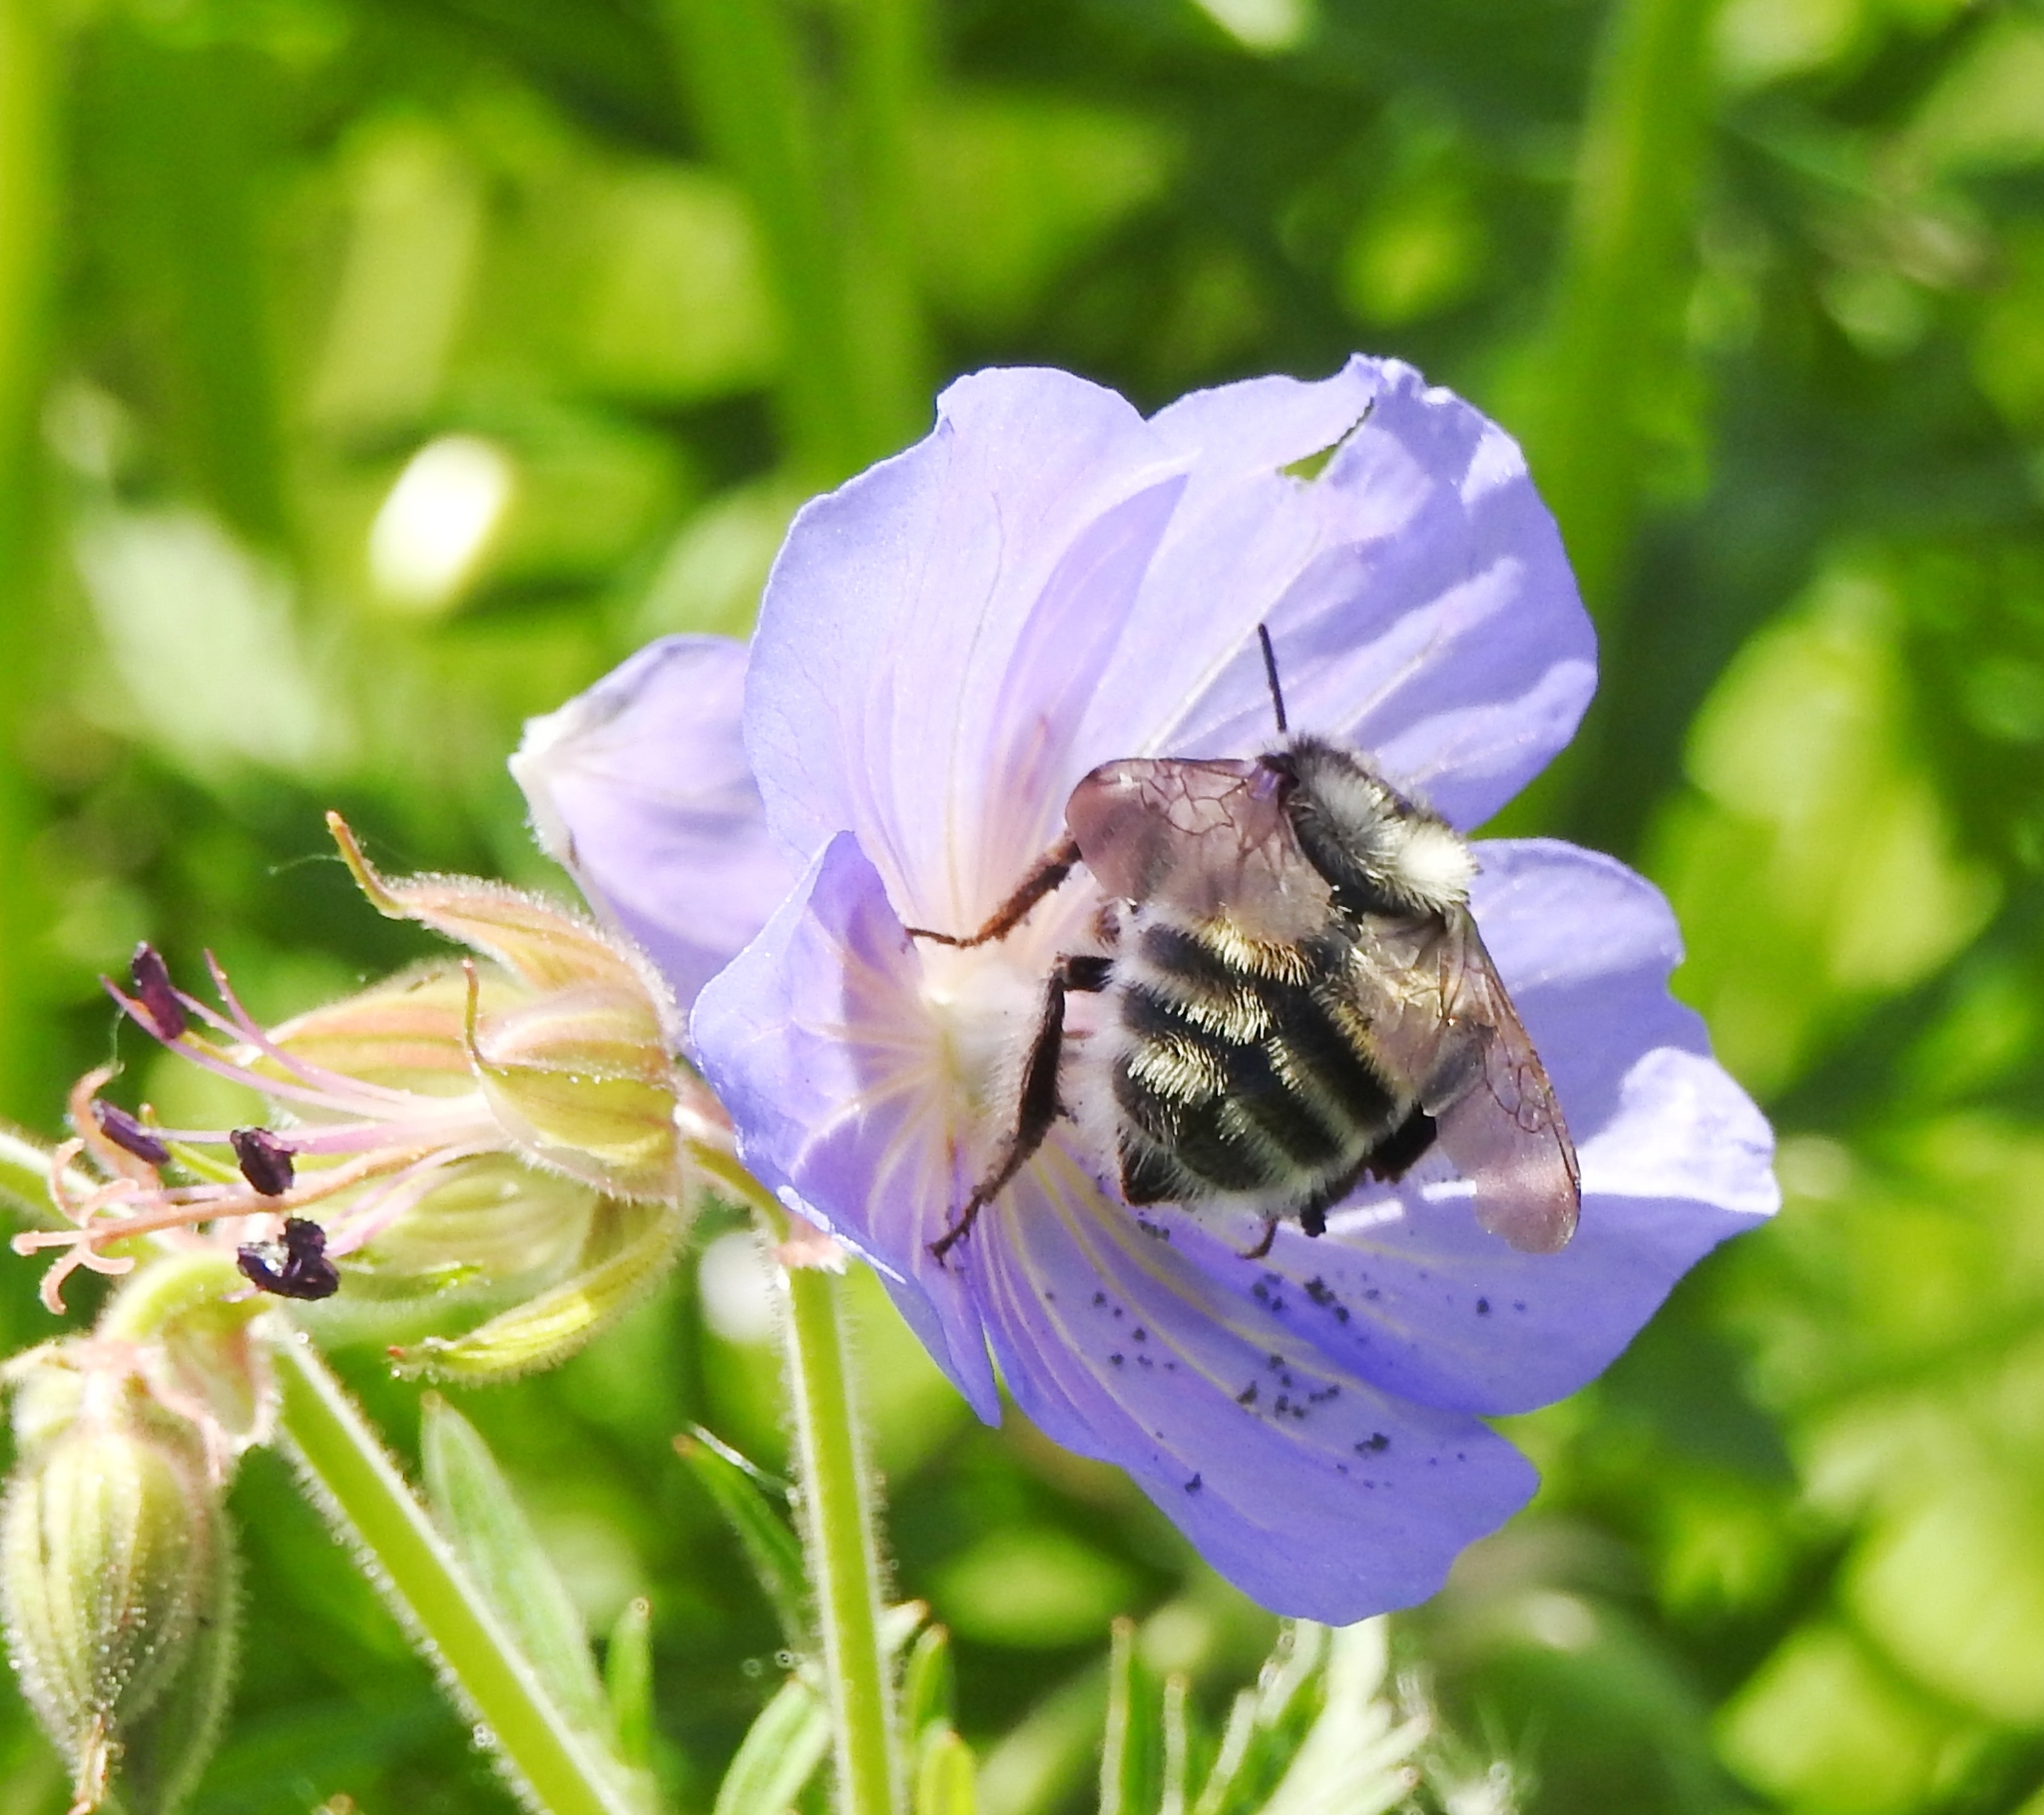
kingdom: Animalia
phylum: Arthropoda
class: Insecta
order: Hymenoptera
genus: Thoracobombus
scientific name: Thoracobombus
